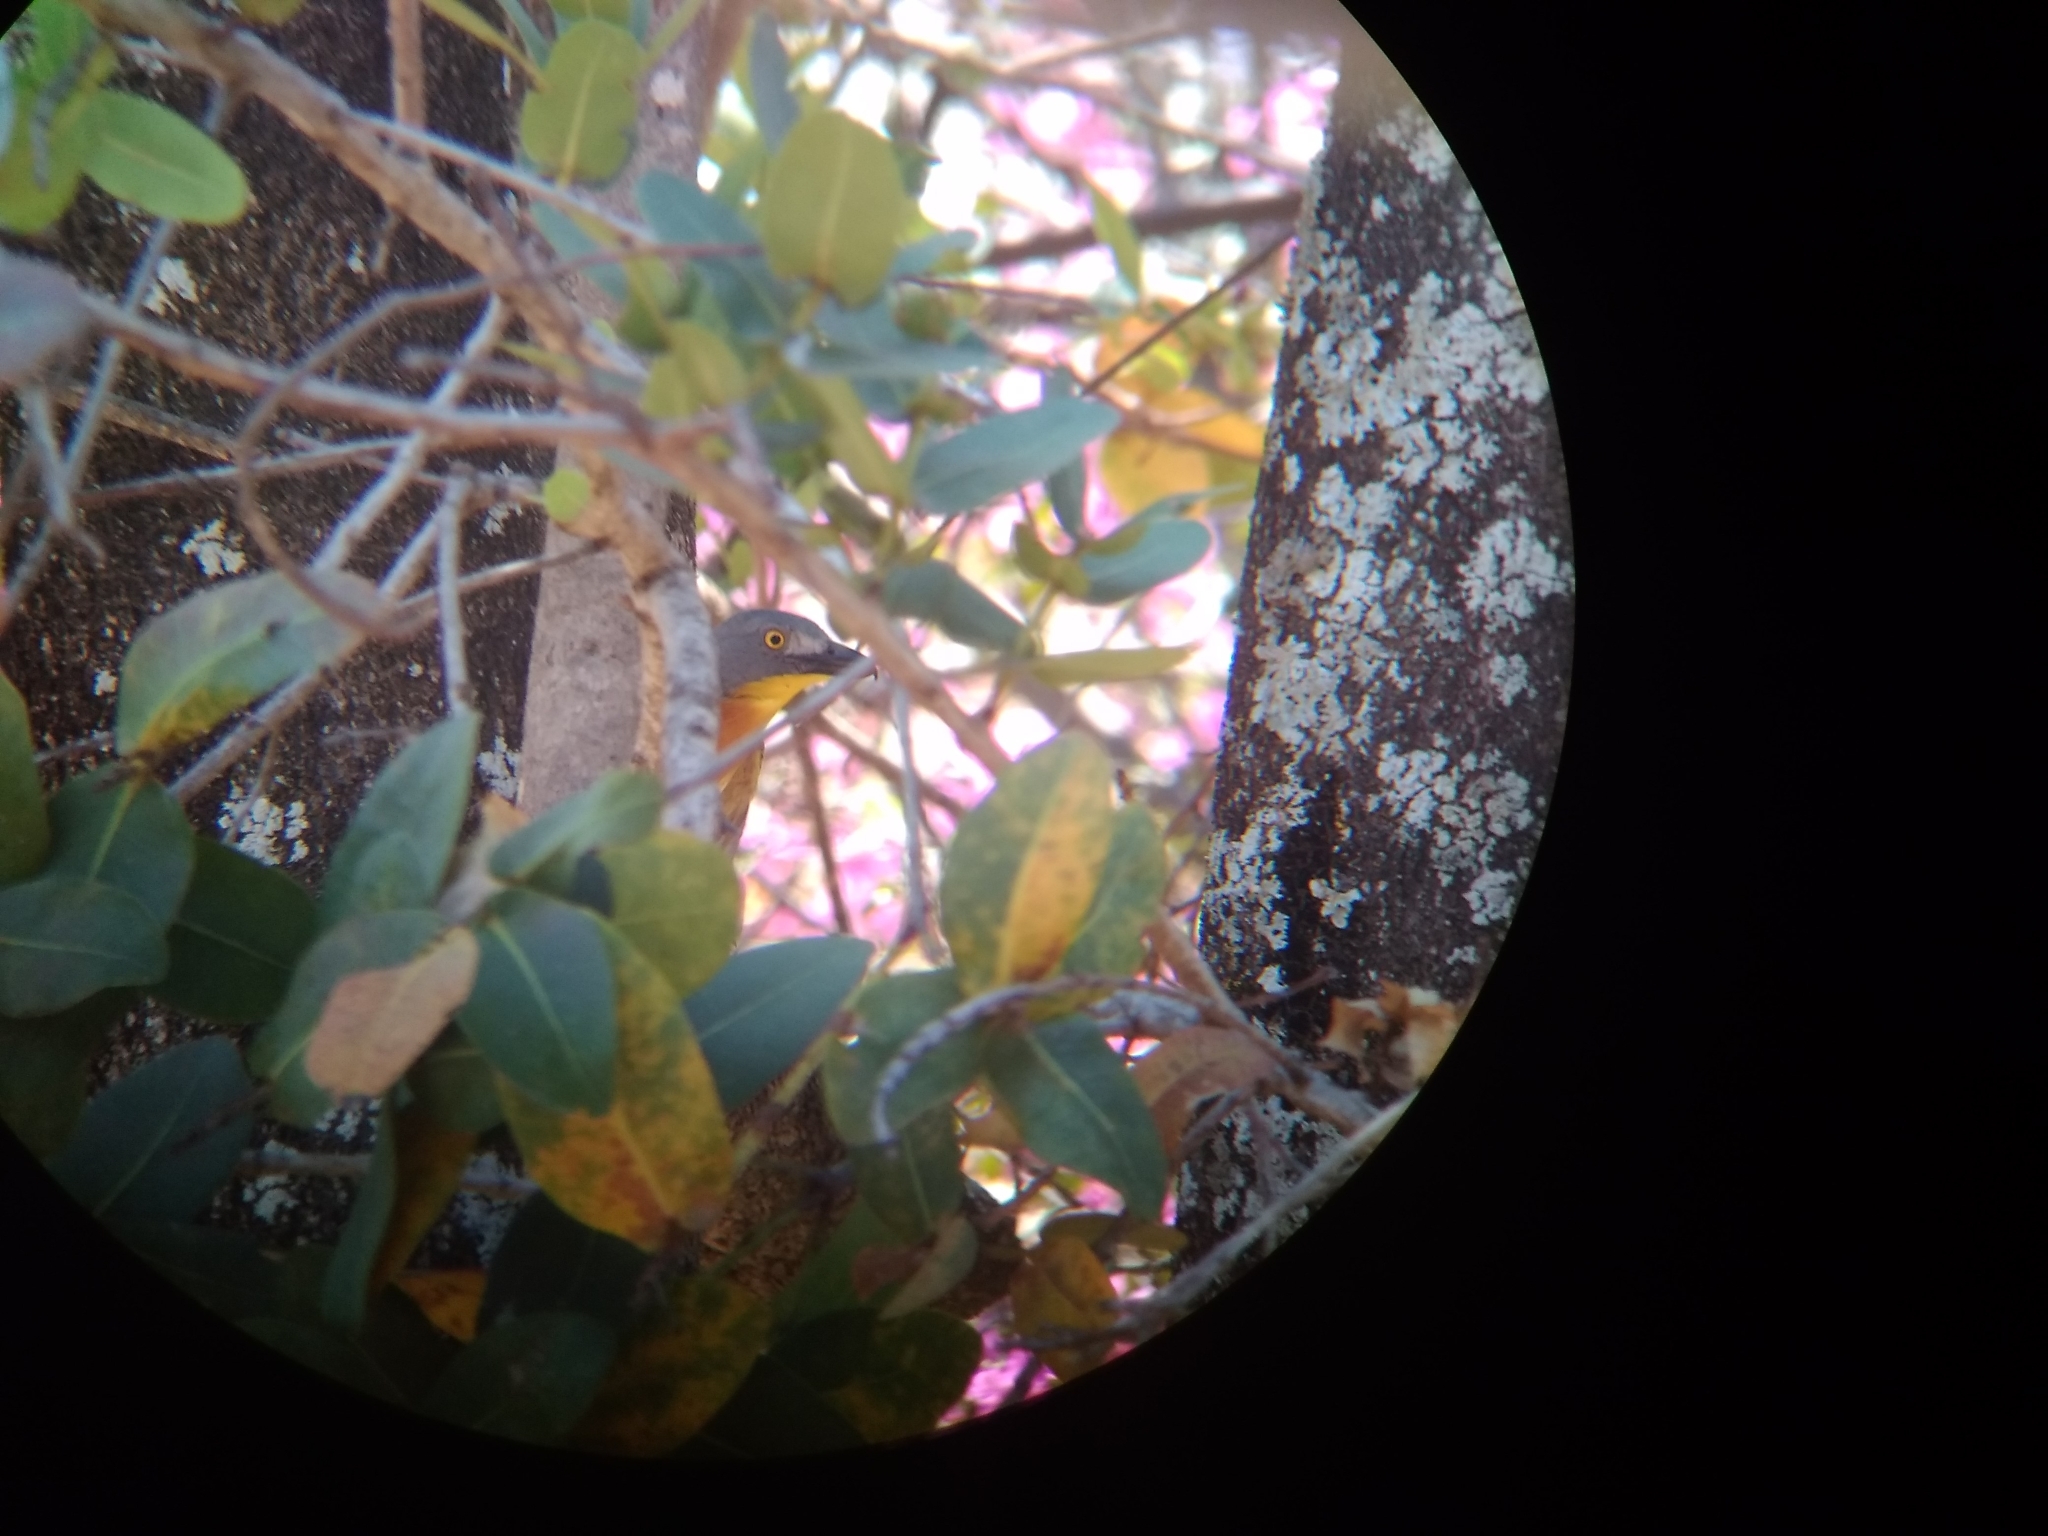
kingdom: Animalia
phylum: Chordata
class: Aves
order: Passeriformes
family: Malaconotidae
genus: Malaconotus
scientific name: Malaconotus blanchoti
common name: Grey-headed bushshrike
